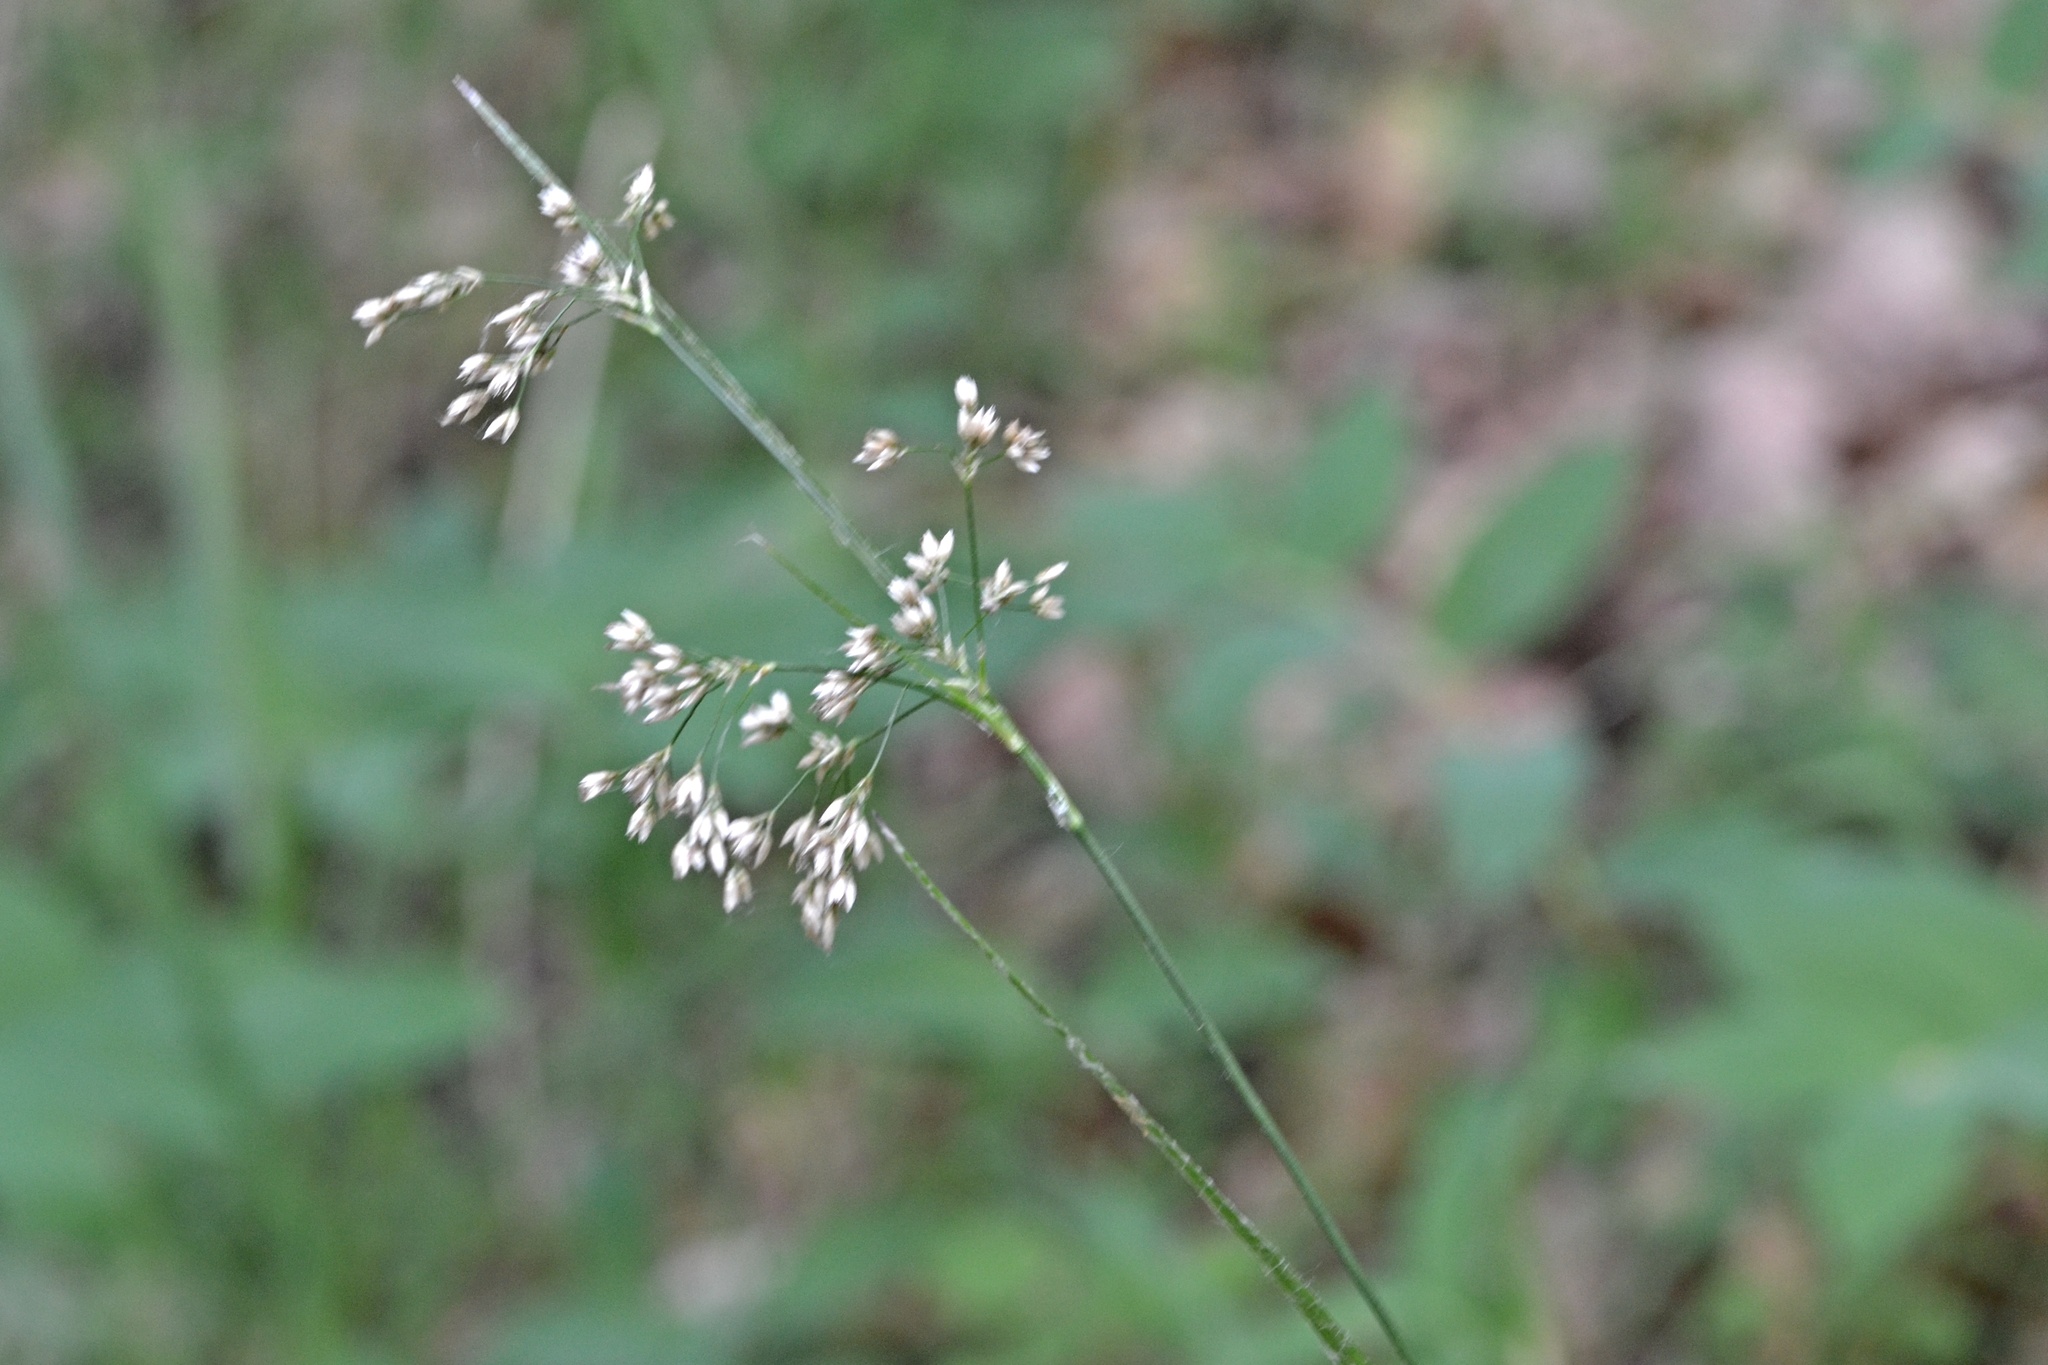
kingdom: Plantae
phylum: Tracheophyta
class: Liliopsida
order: Poales
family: Juncaceae
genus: Luzula
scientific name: Luzula luzuloides
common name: White wood-rush
